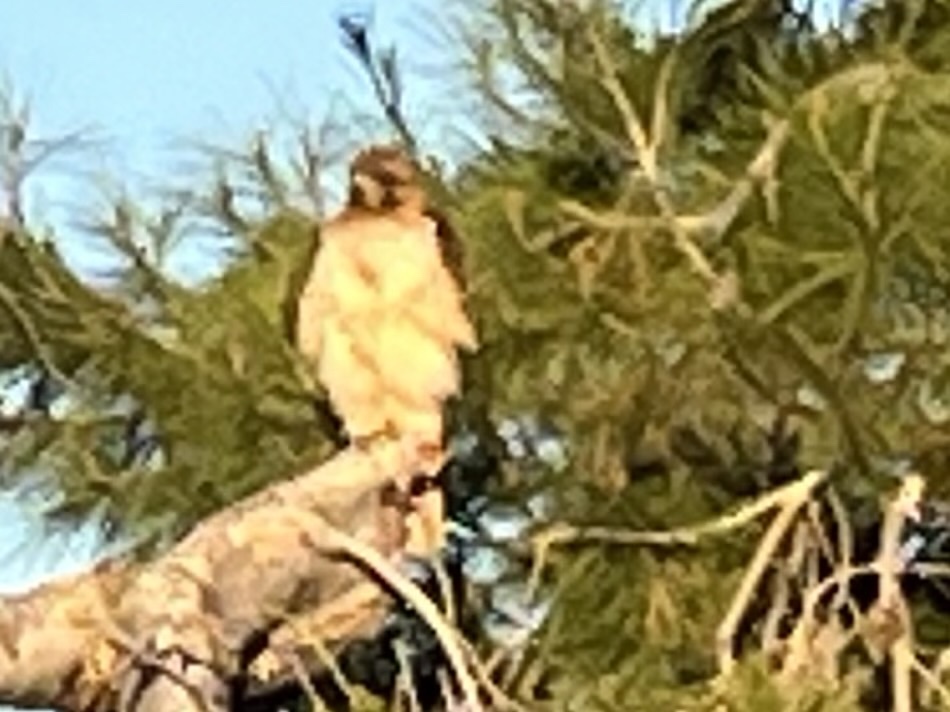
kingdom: Animalia
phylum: Chordata
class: Aves
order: Accipitriformes
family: Accipitridae
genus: Buteo
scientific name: Buteo jamaicensis
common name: Red-tailed hawk
